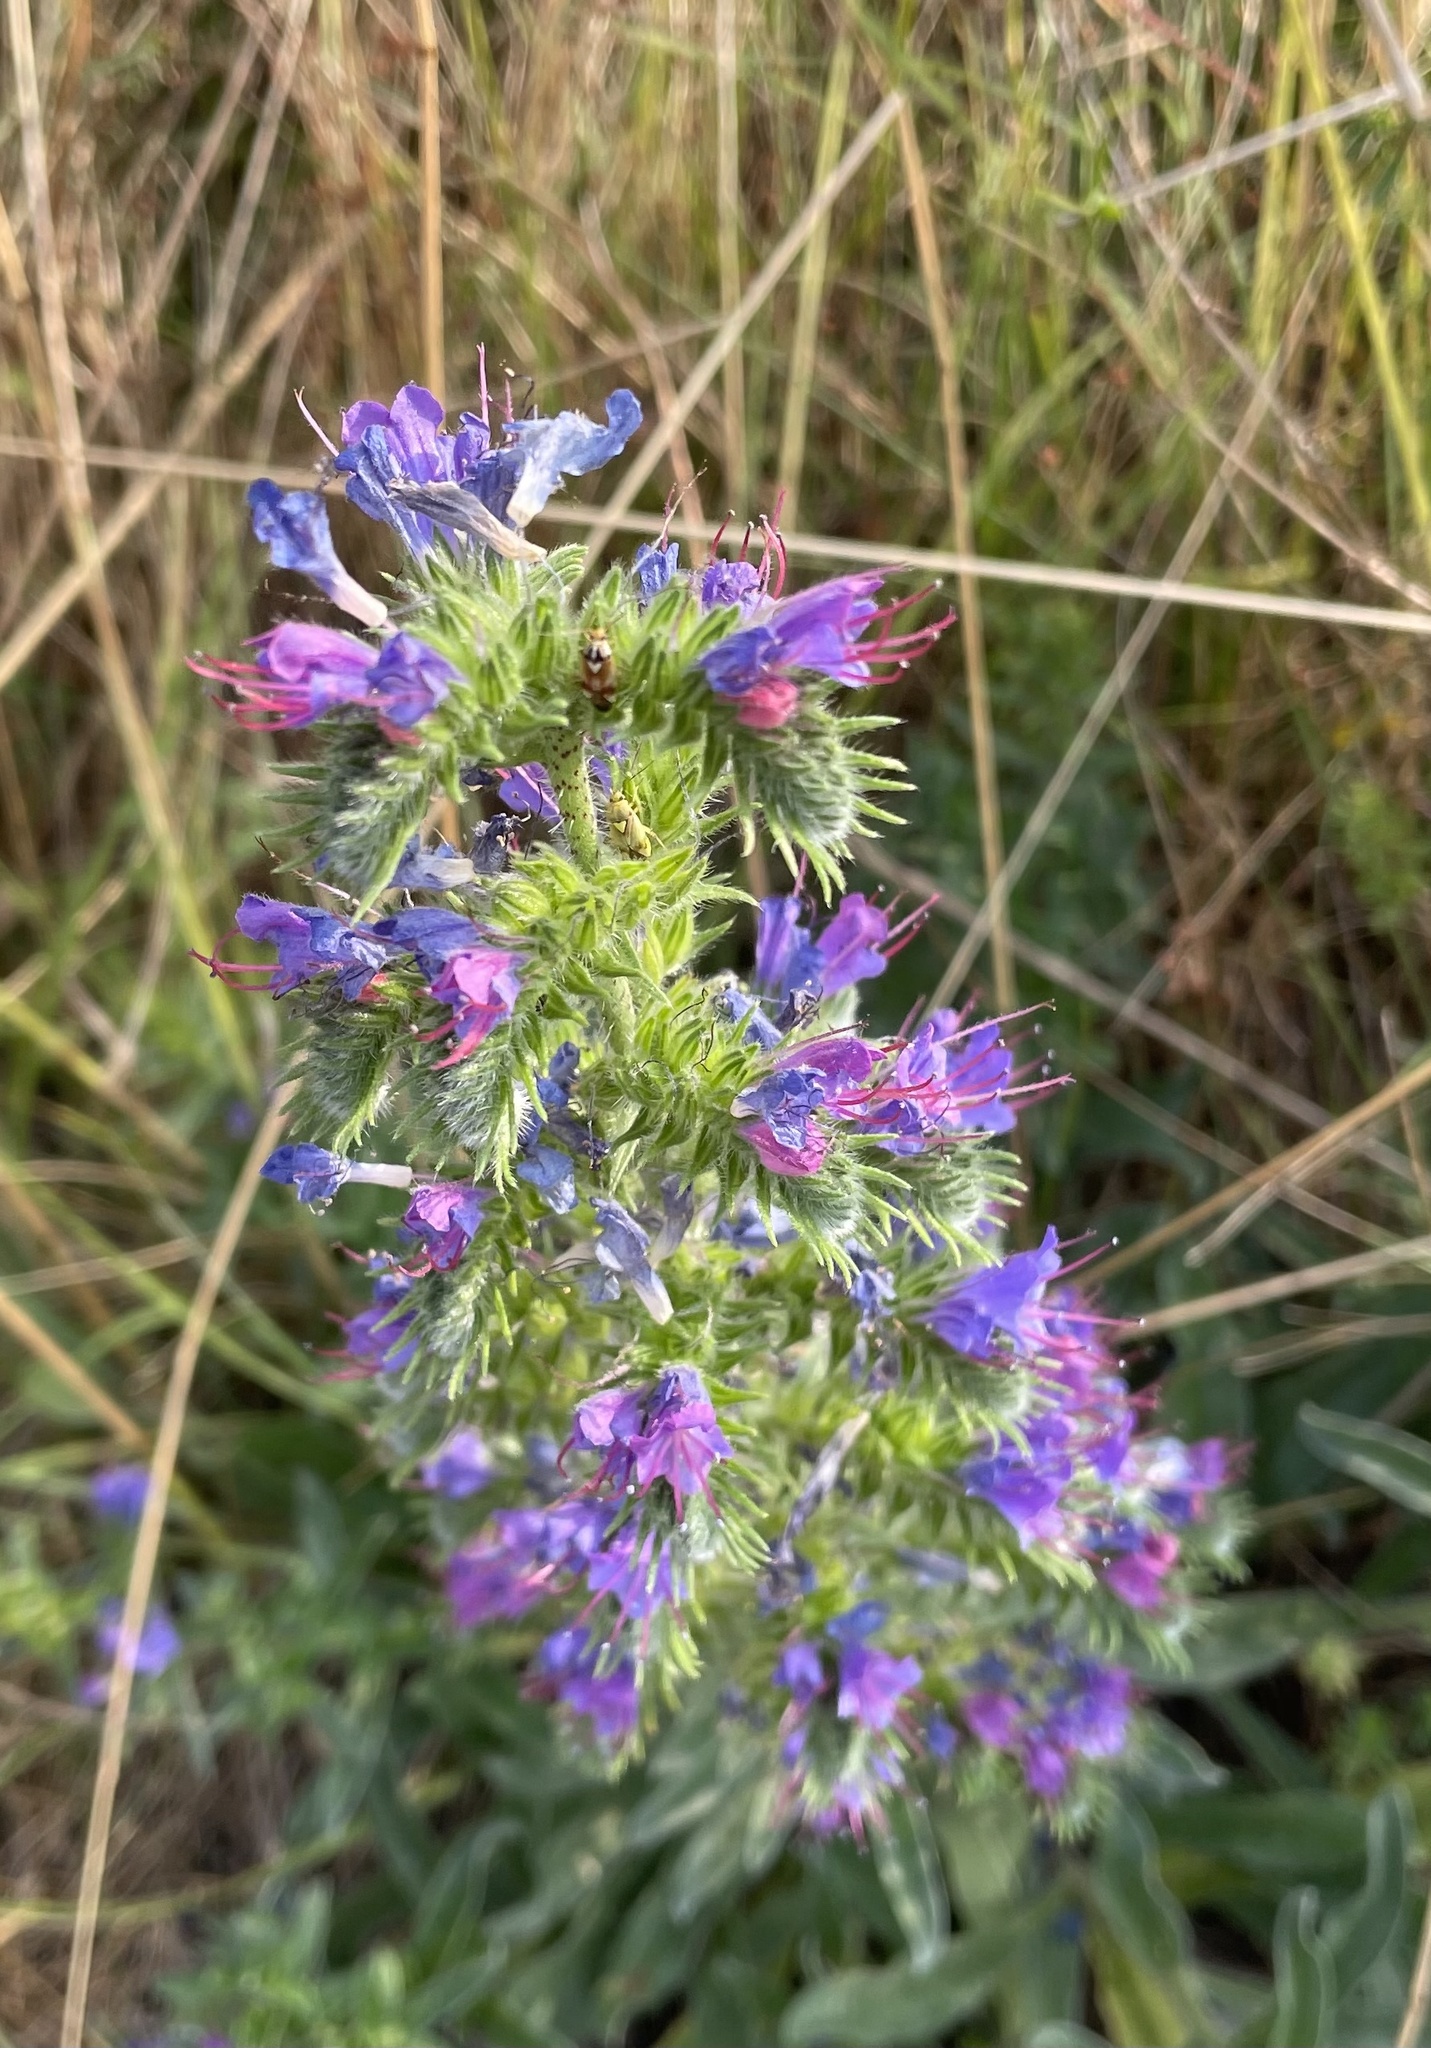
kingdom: Plantae
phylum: Tracheophyta
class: Magnoliopsida
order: Boraginales
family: Boraginaceae
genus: Echium
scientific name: Echium vulgare
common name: Common viper's bugloss
